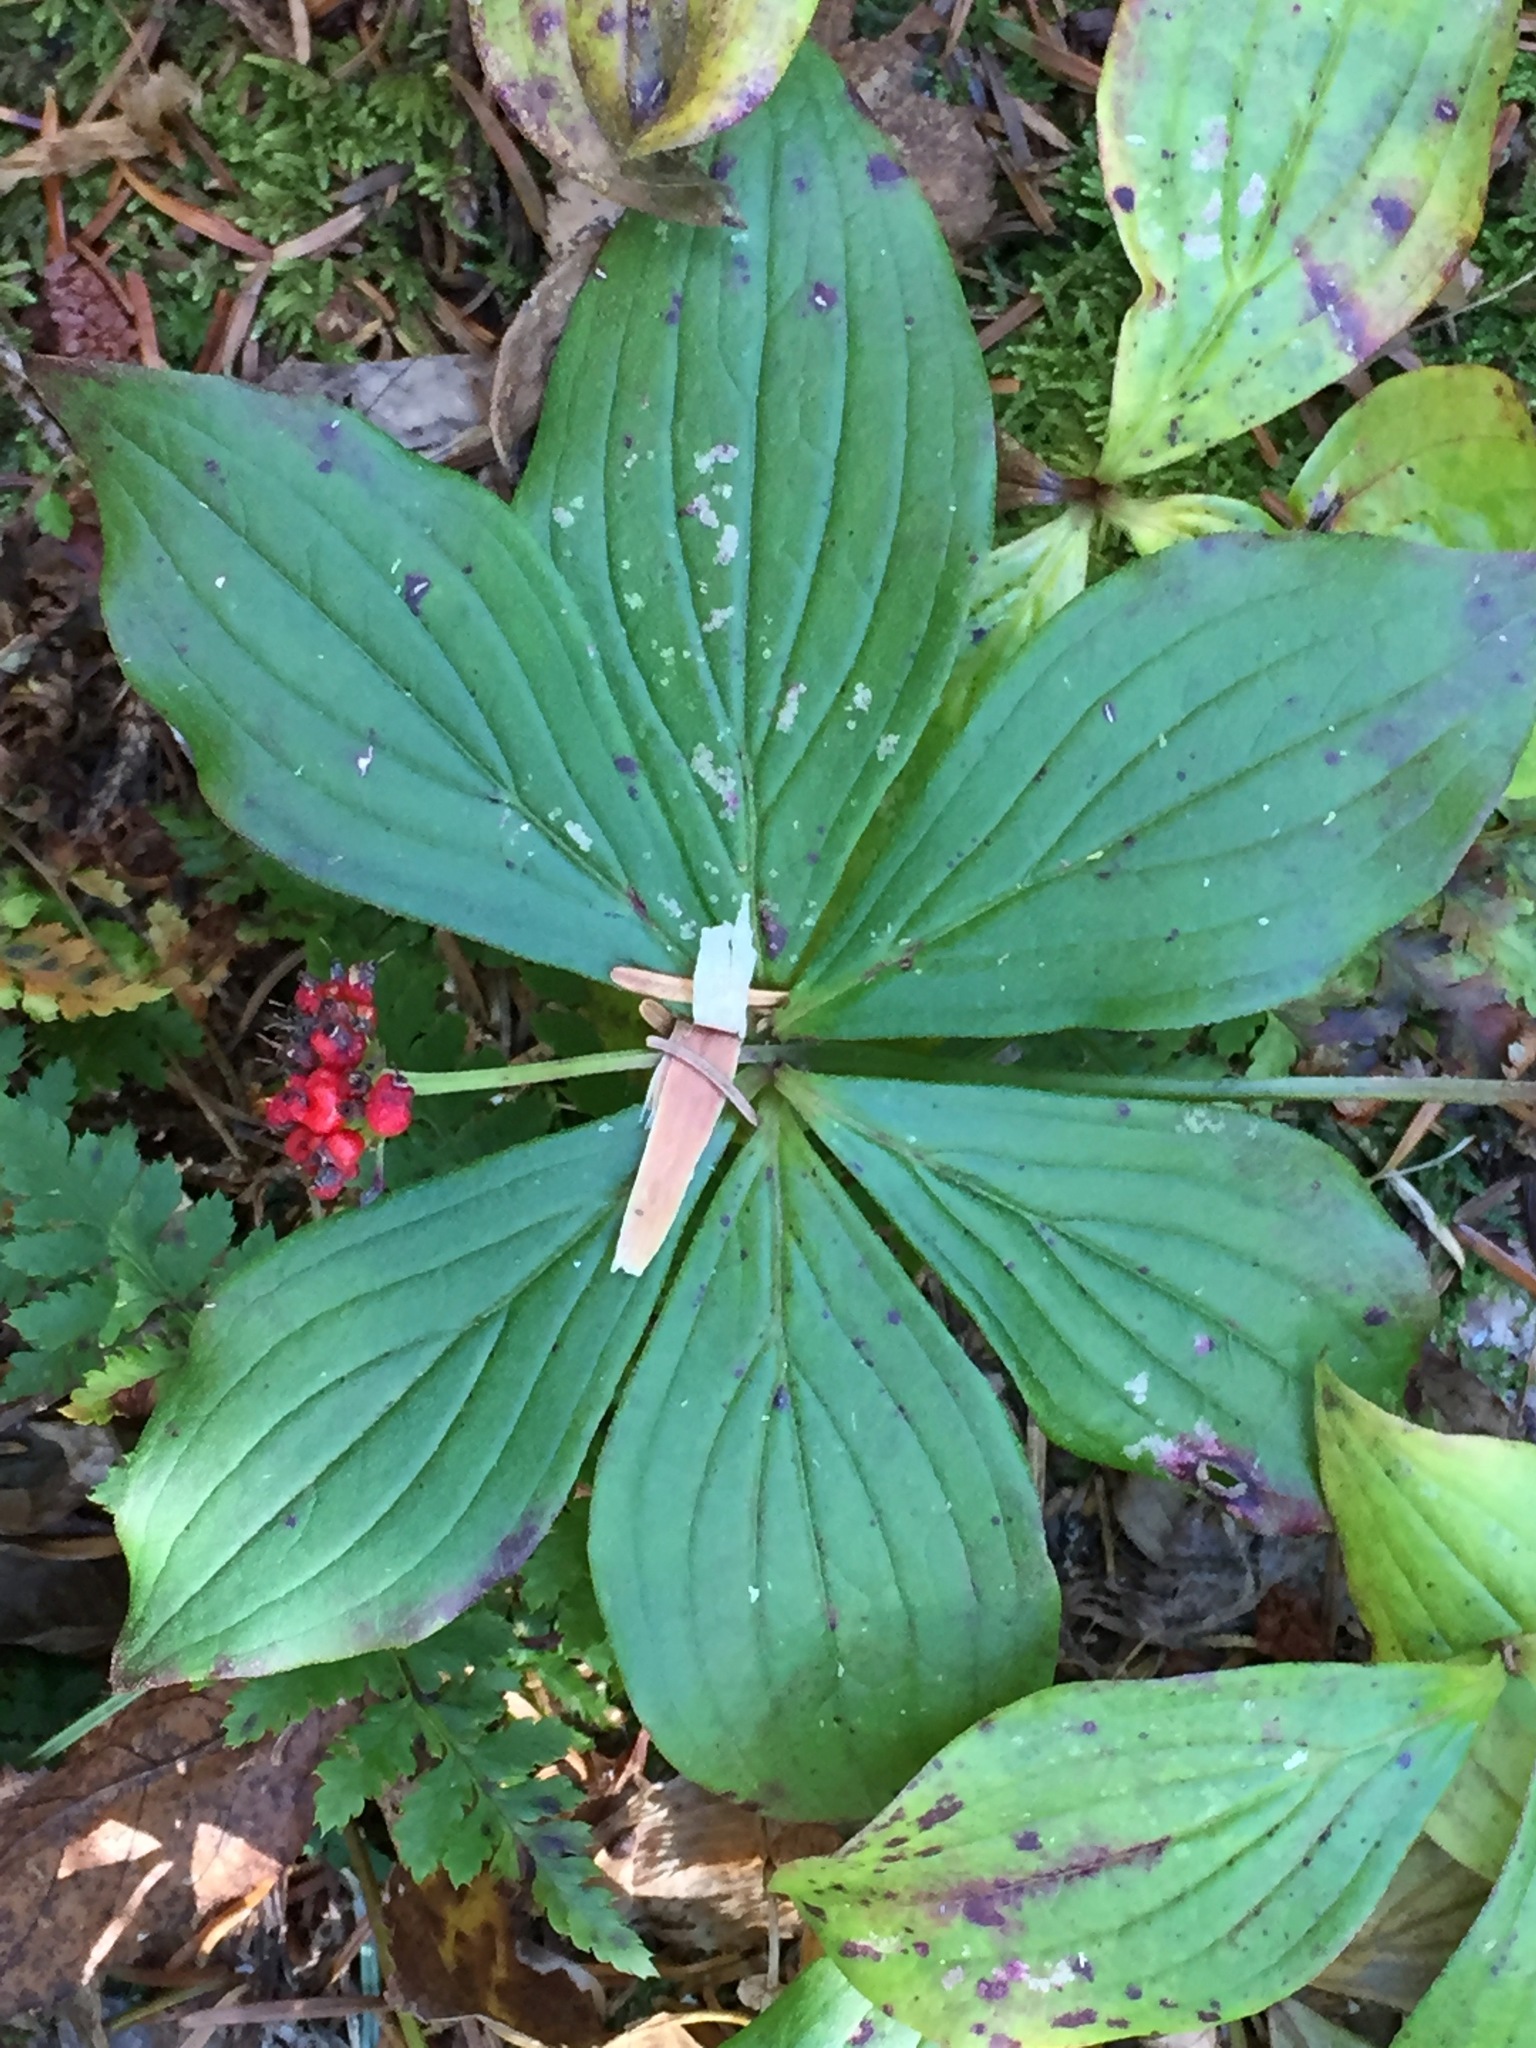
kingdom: Plantae
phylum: Tracheophyta
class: Magnoliopsida
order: Cornales
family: Cornaceae
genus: Cornus
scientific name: Cornus canadensis
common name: Creeping dogwood
